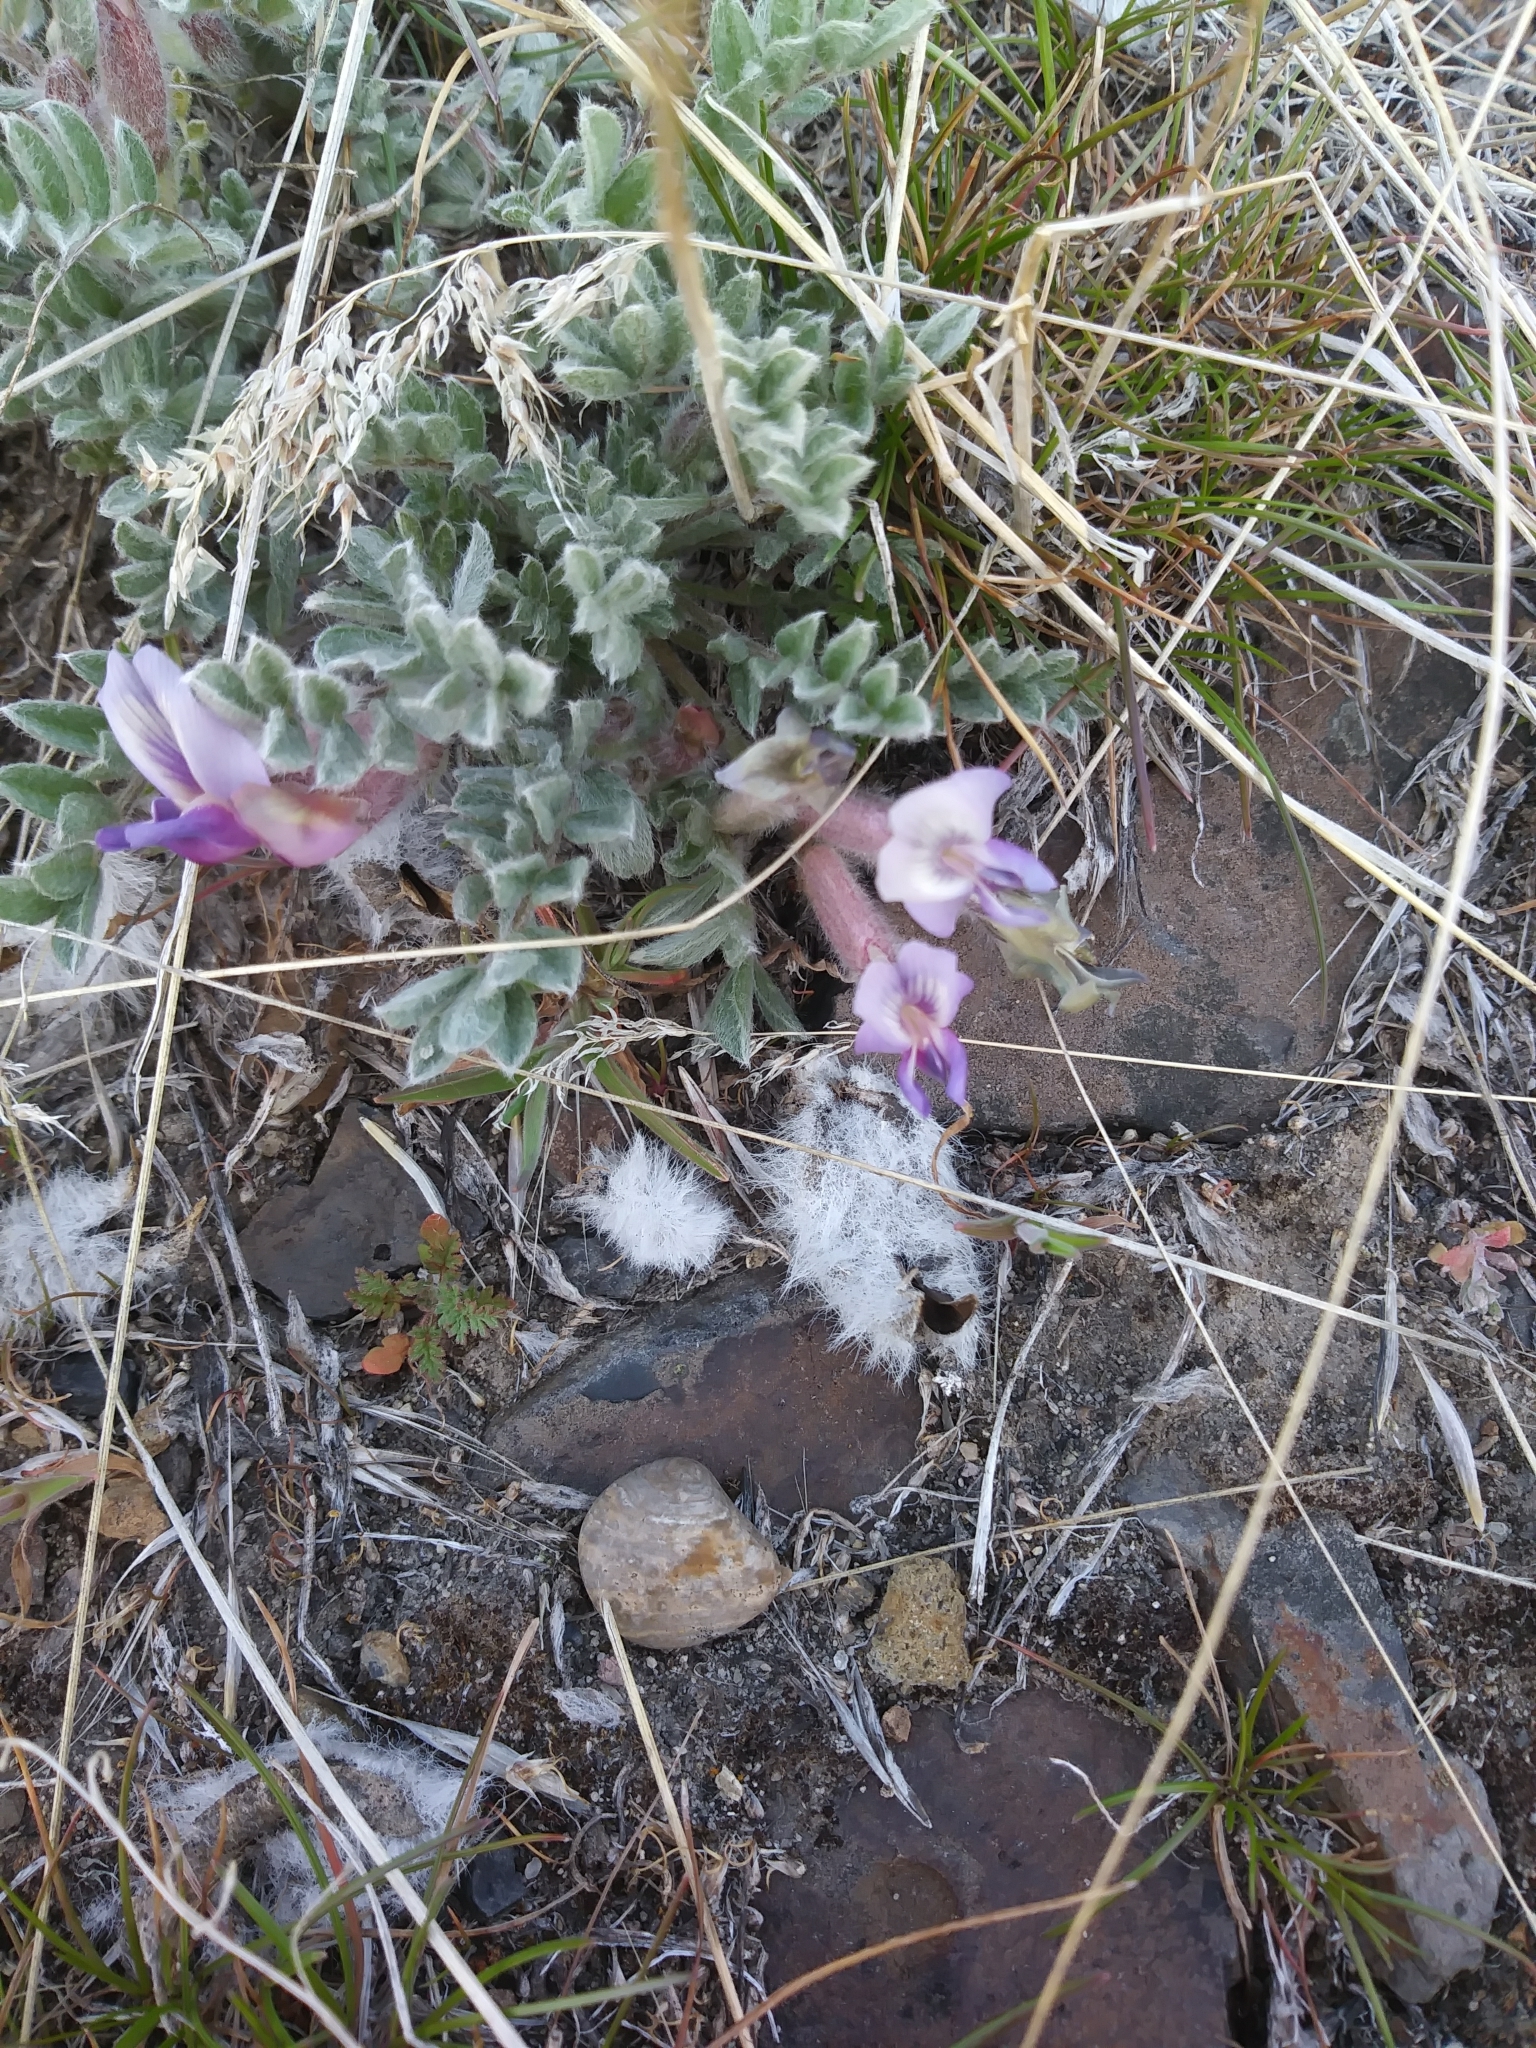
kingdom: Plantae
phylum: Tracheophyta
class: Magnoliopsida
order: Fabales
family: Fabaceae
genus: Astragalus
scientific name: Astragalus purshii
